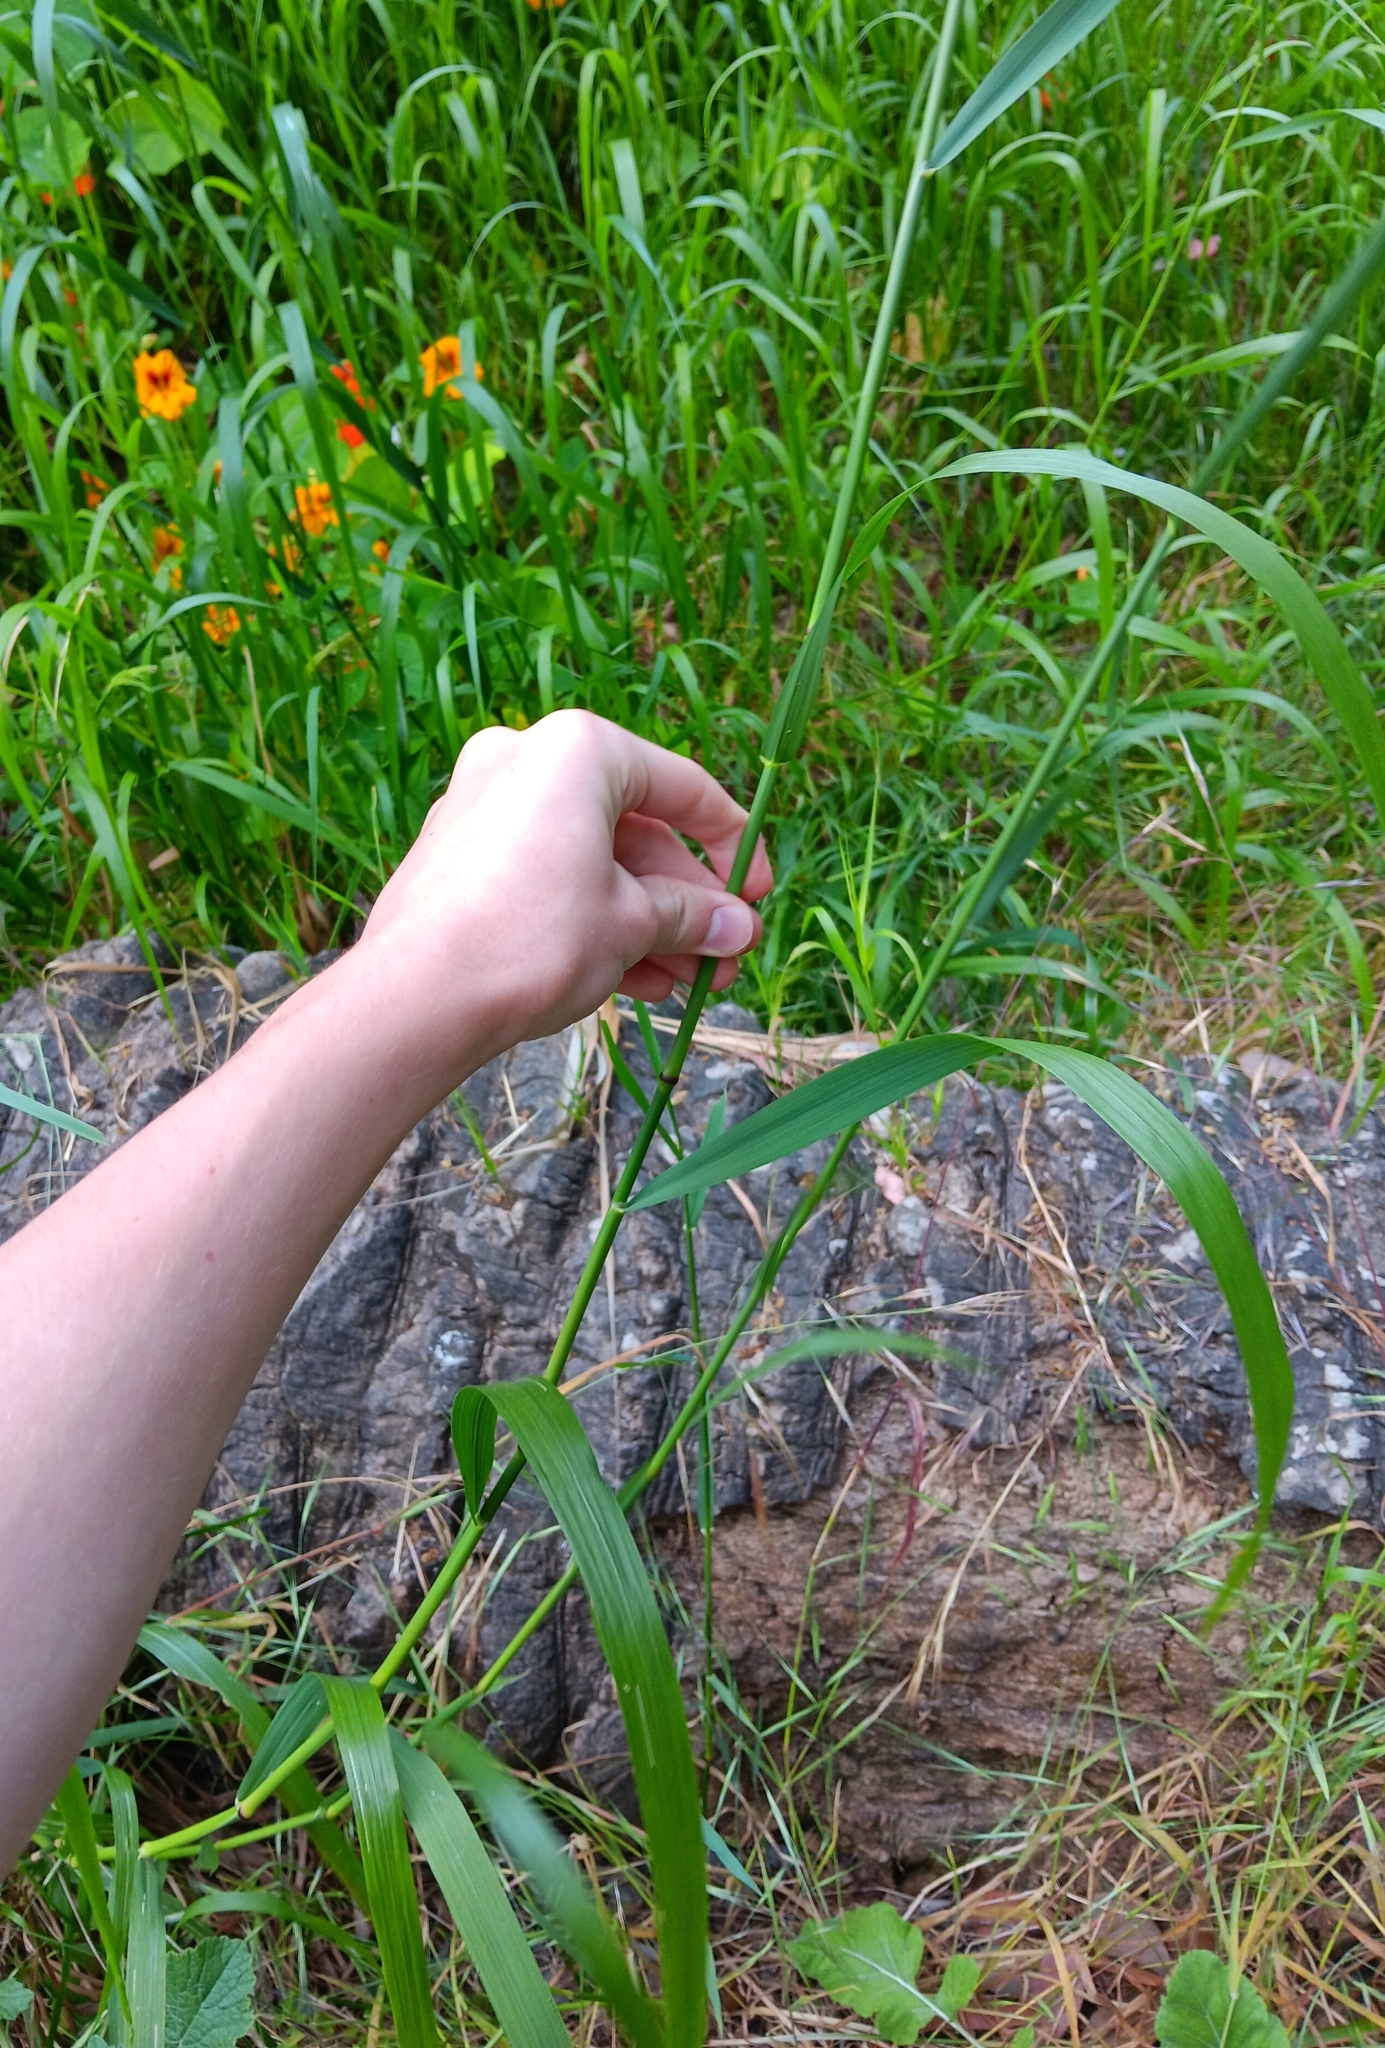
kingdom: Plantae
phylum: Tracheophyta
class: Liliopsida
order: Poales
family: Poaceae
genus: Oloptum
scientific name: Oloptum miliaceum
